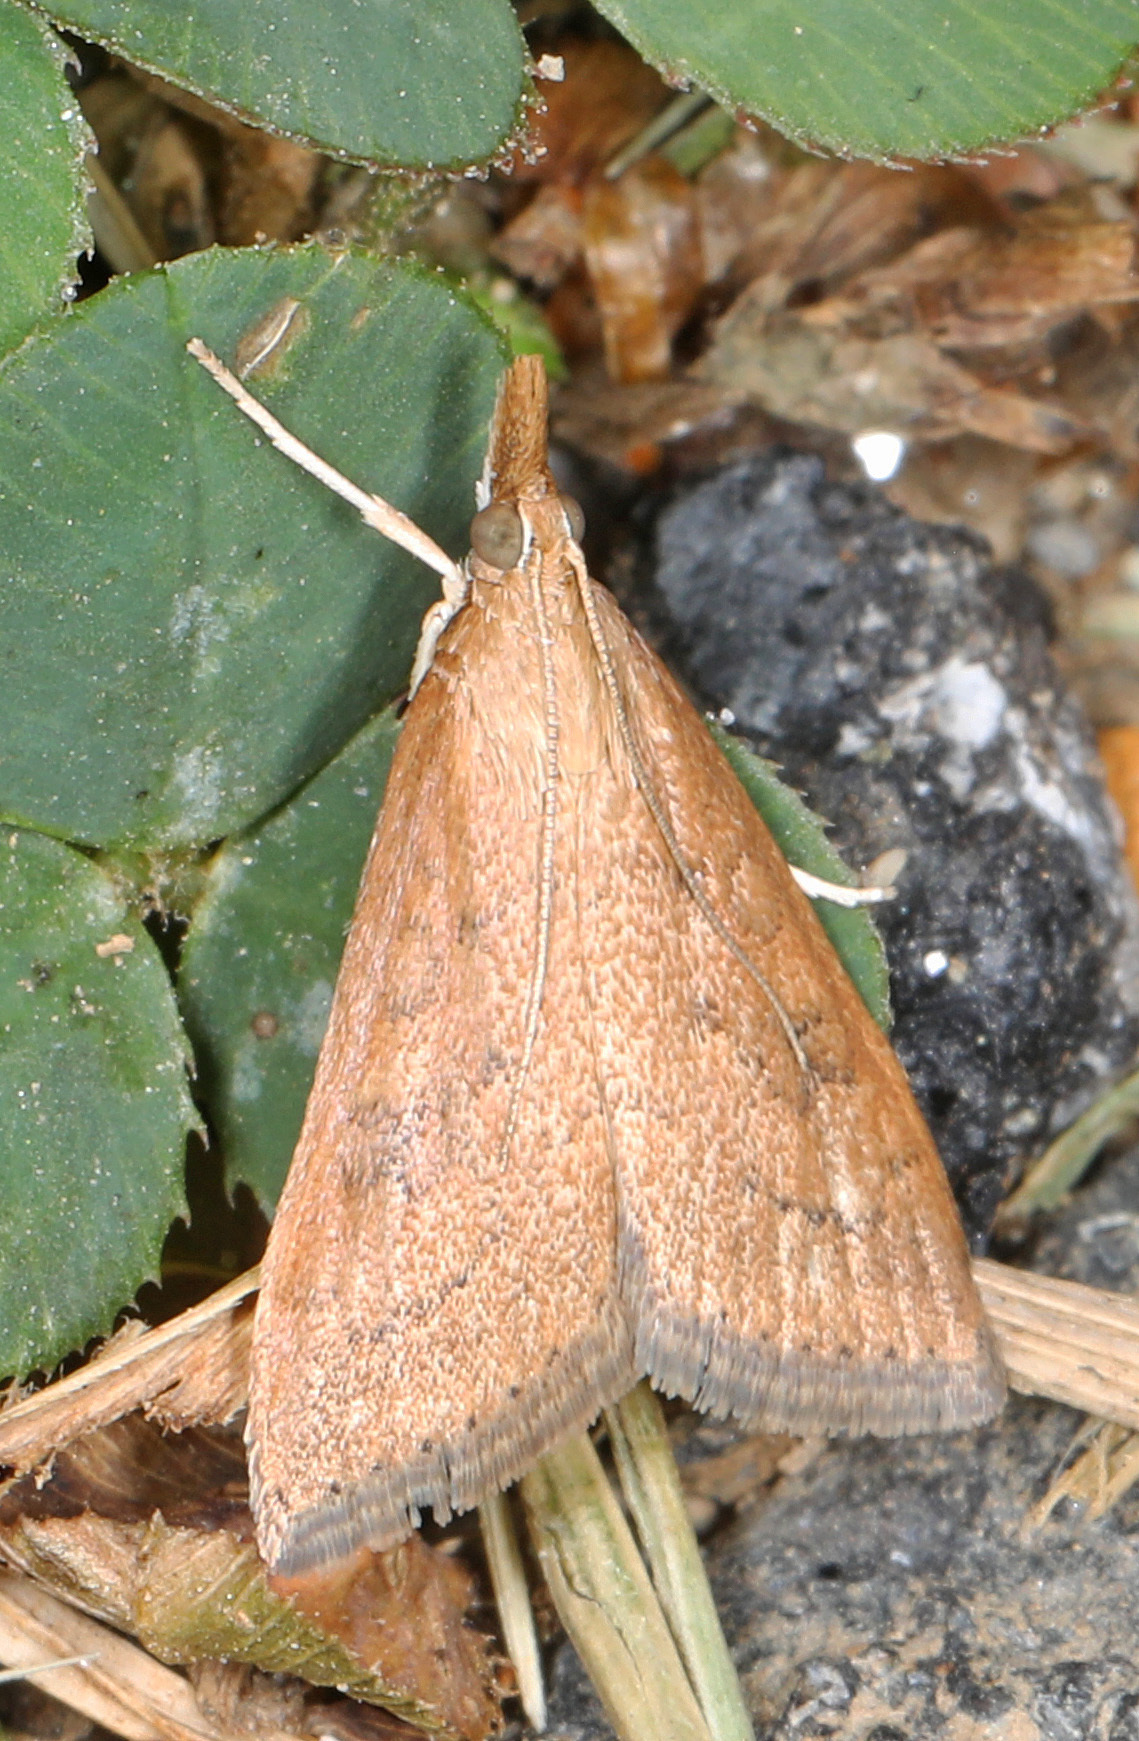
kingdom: Animalia
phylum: Arthropoda
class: Insecta
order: Lepidoptera
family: Crambidae
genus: Udea
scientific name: Udea rubigalis
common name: Celery leaftier moth
